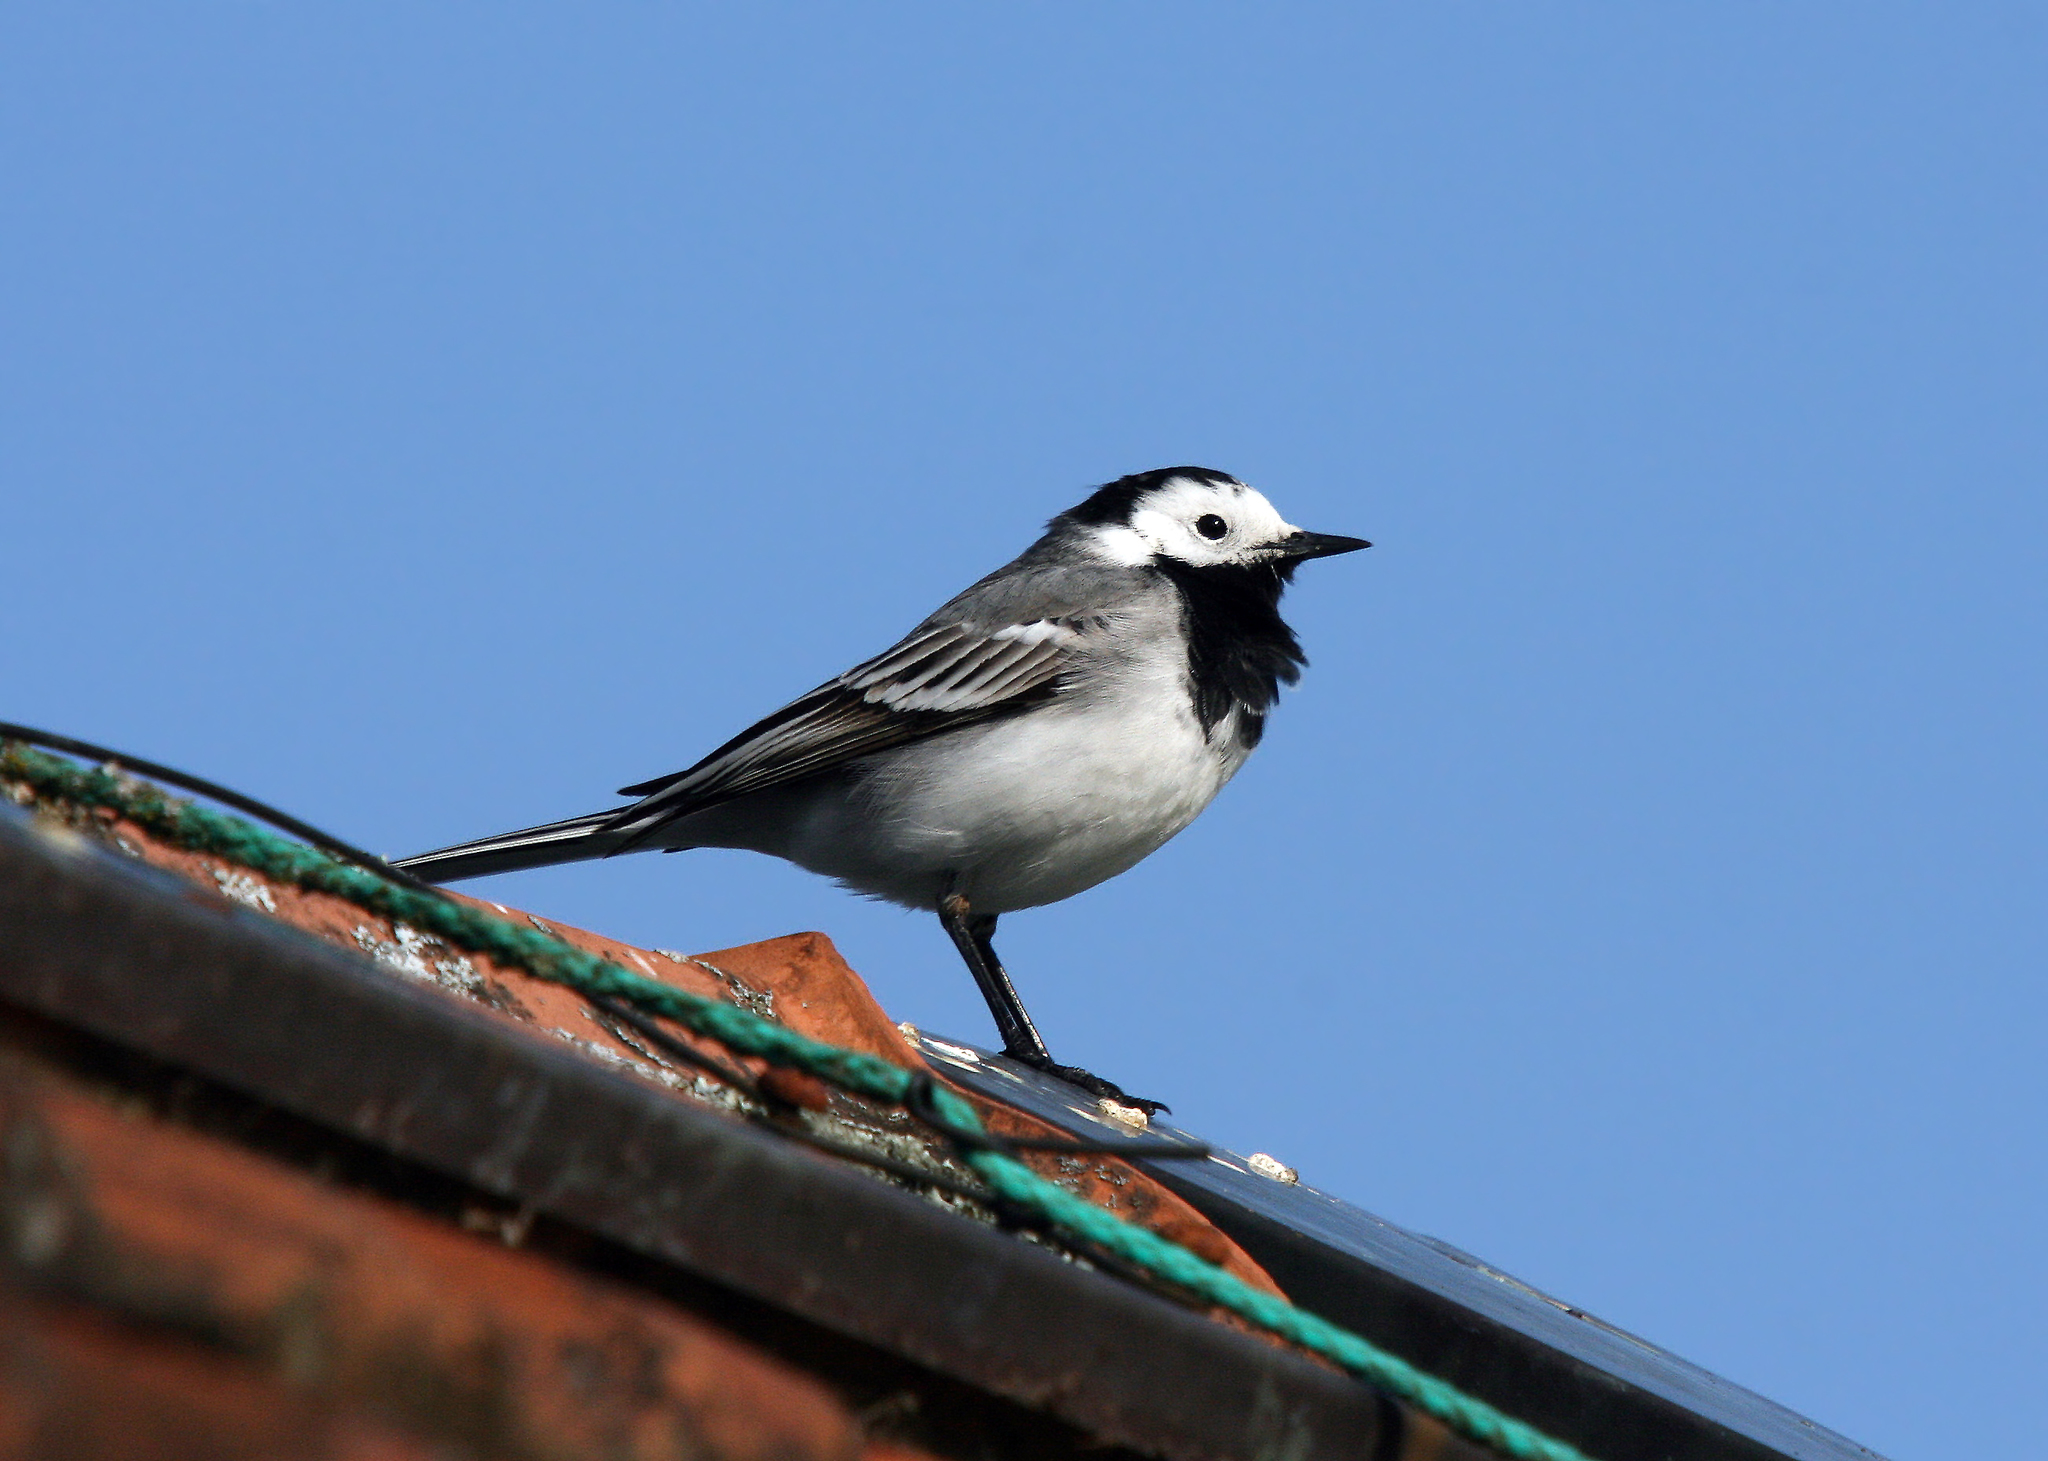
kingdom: Animalia
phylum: Chordata
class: Aves
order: Passeriformes
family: Motacillidae
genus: Motacilla
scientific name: Motacilla alba
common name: White wagtail
